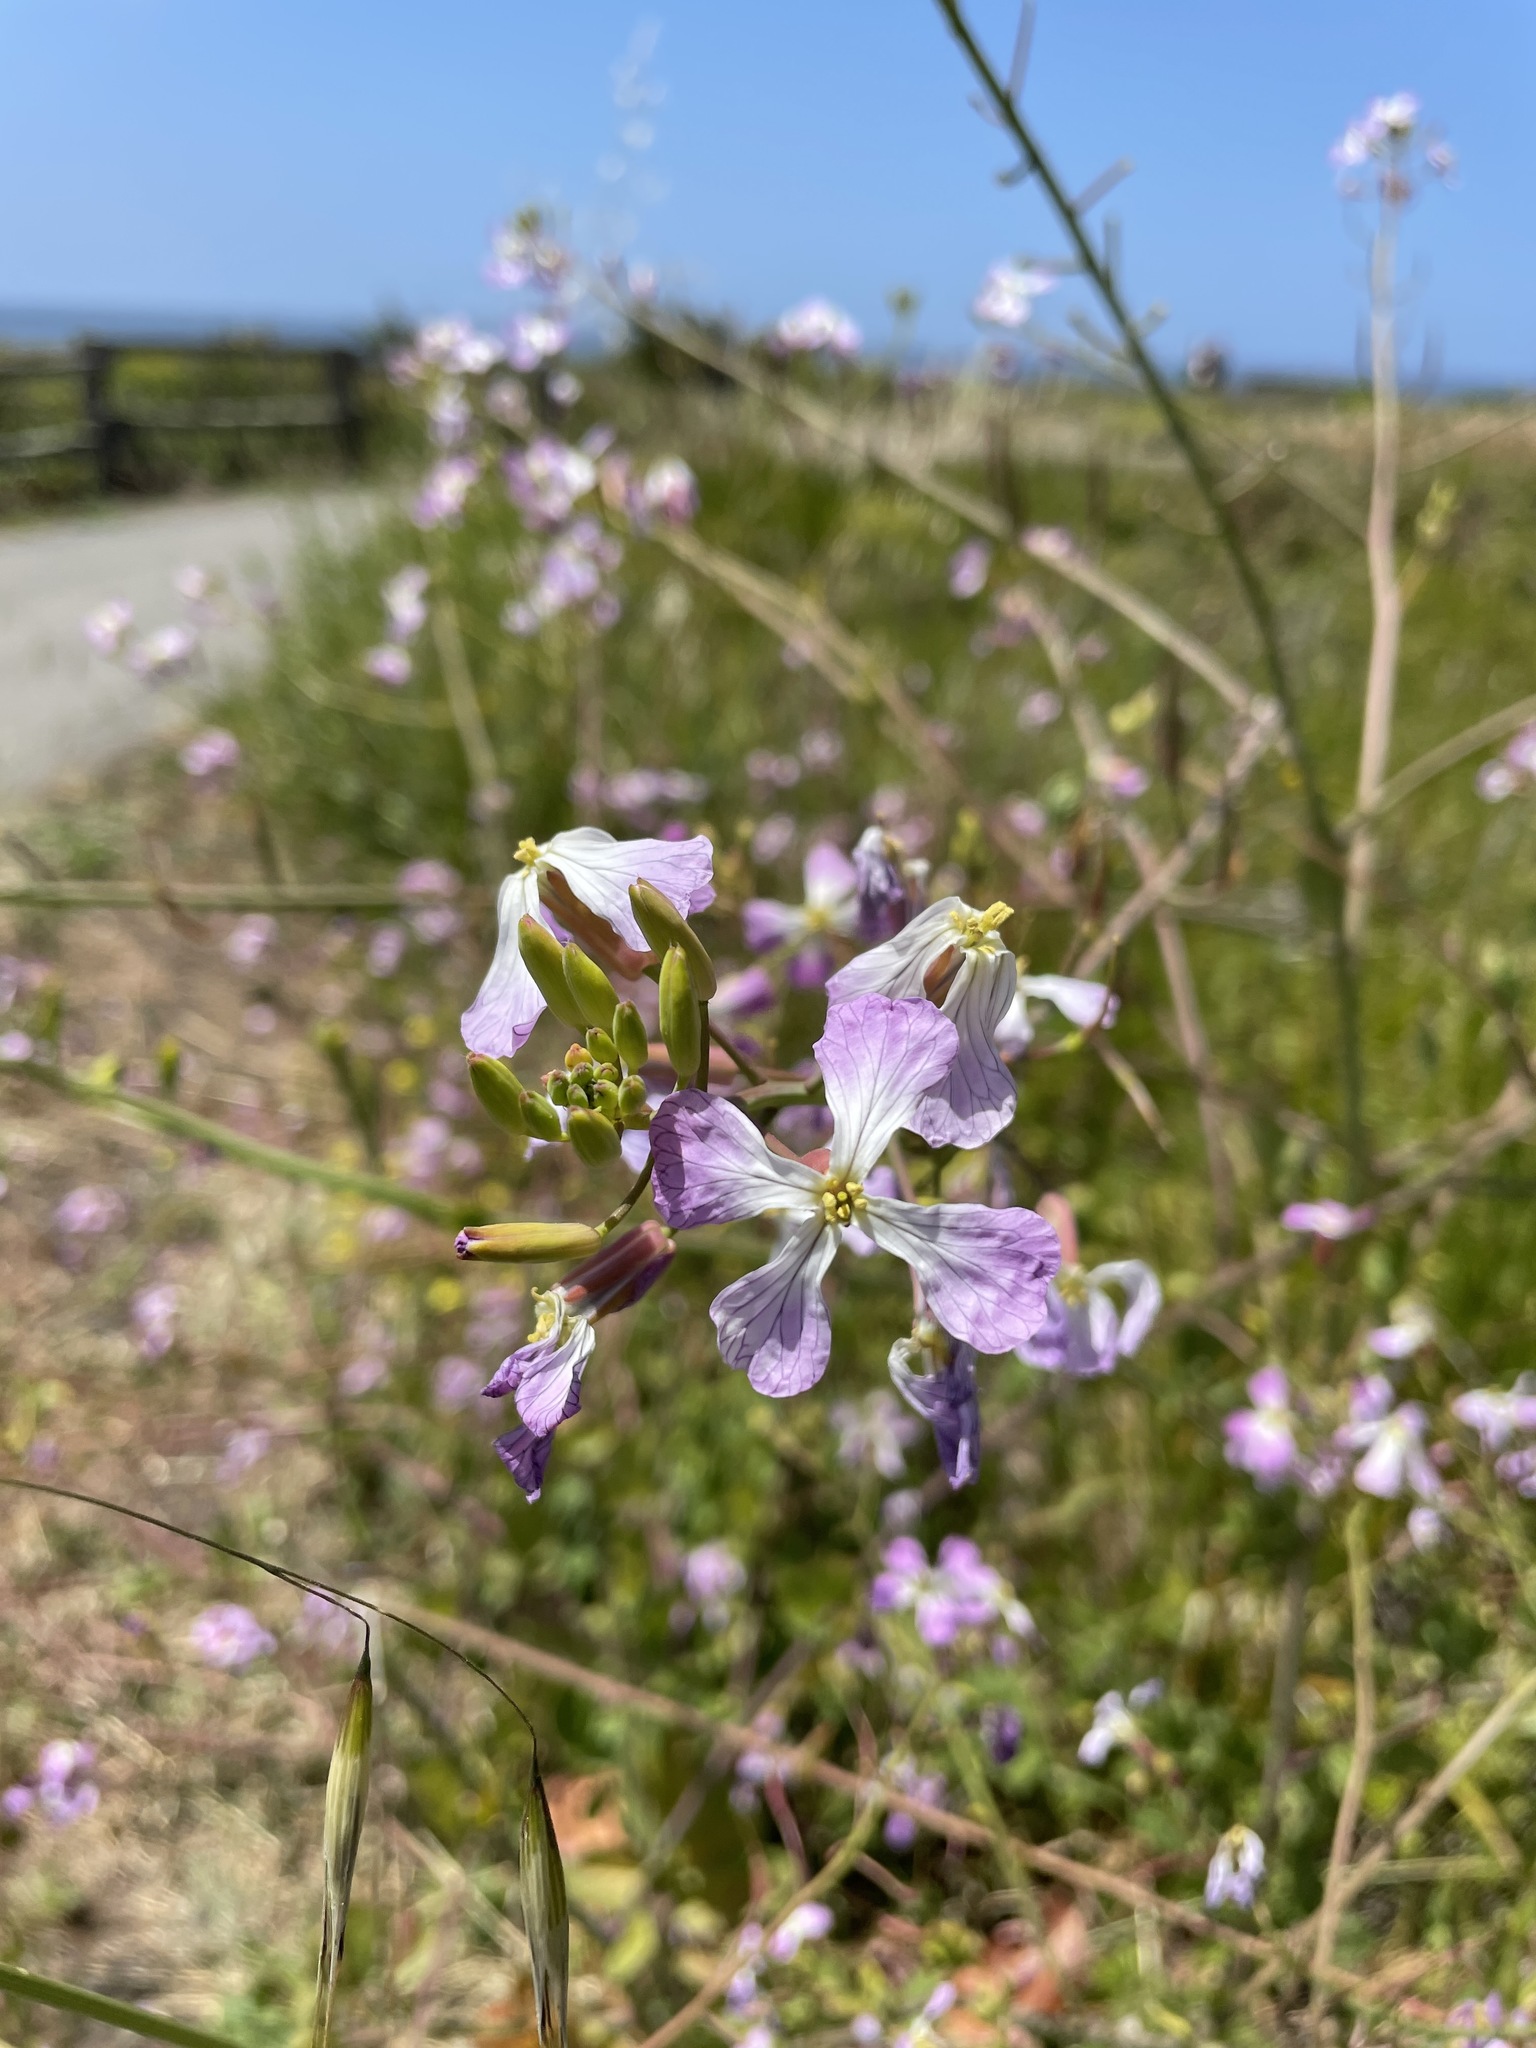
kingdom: Plantae
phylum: Tracheophyta
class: Magnoliopsida
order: Brassicales
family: Brassicaceae
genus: Raphanus
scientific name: Raphanus sativus
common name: Cultivated radish
